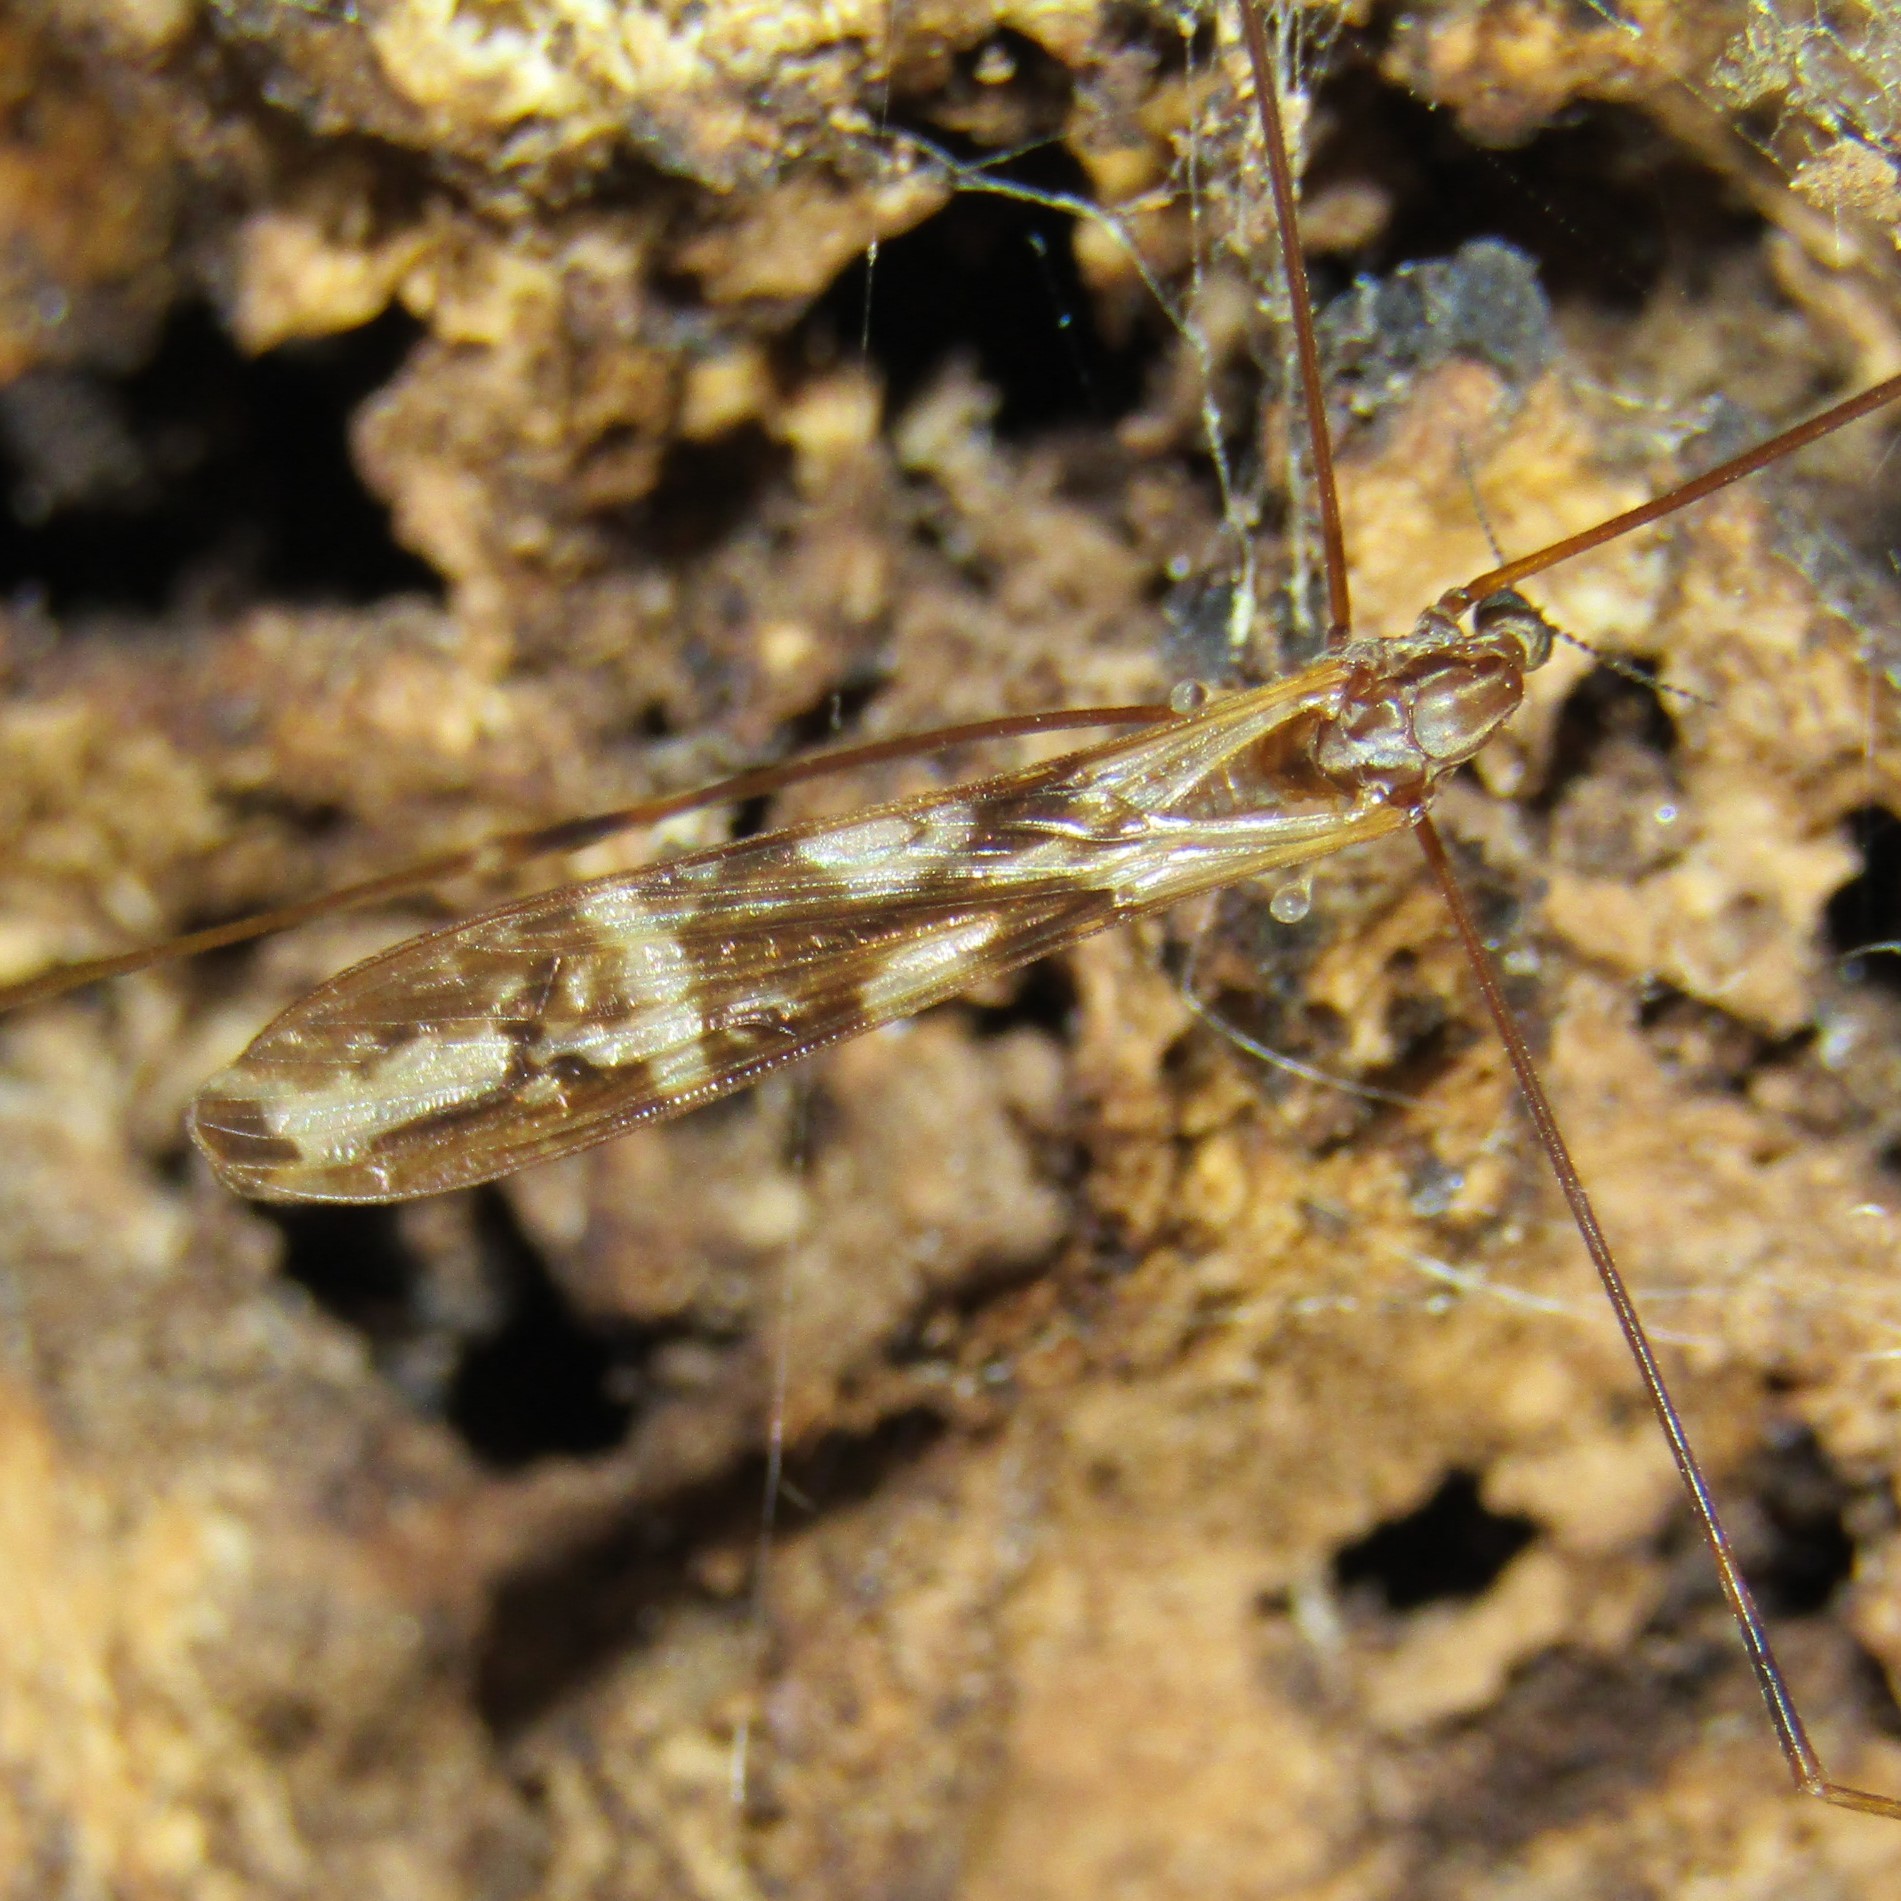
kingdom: Animalia
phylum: Arthropoda
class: Insecta
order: Diptera
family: Limoniidae
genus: Discobola
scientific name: Discobola dohrni
